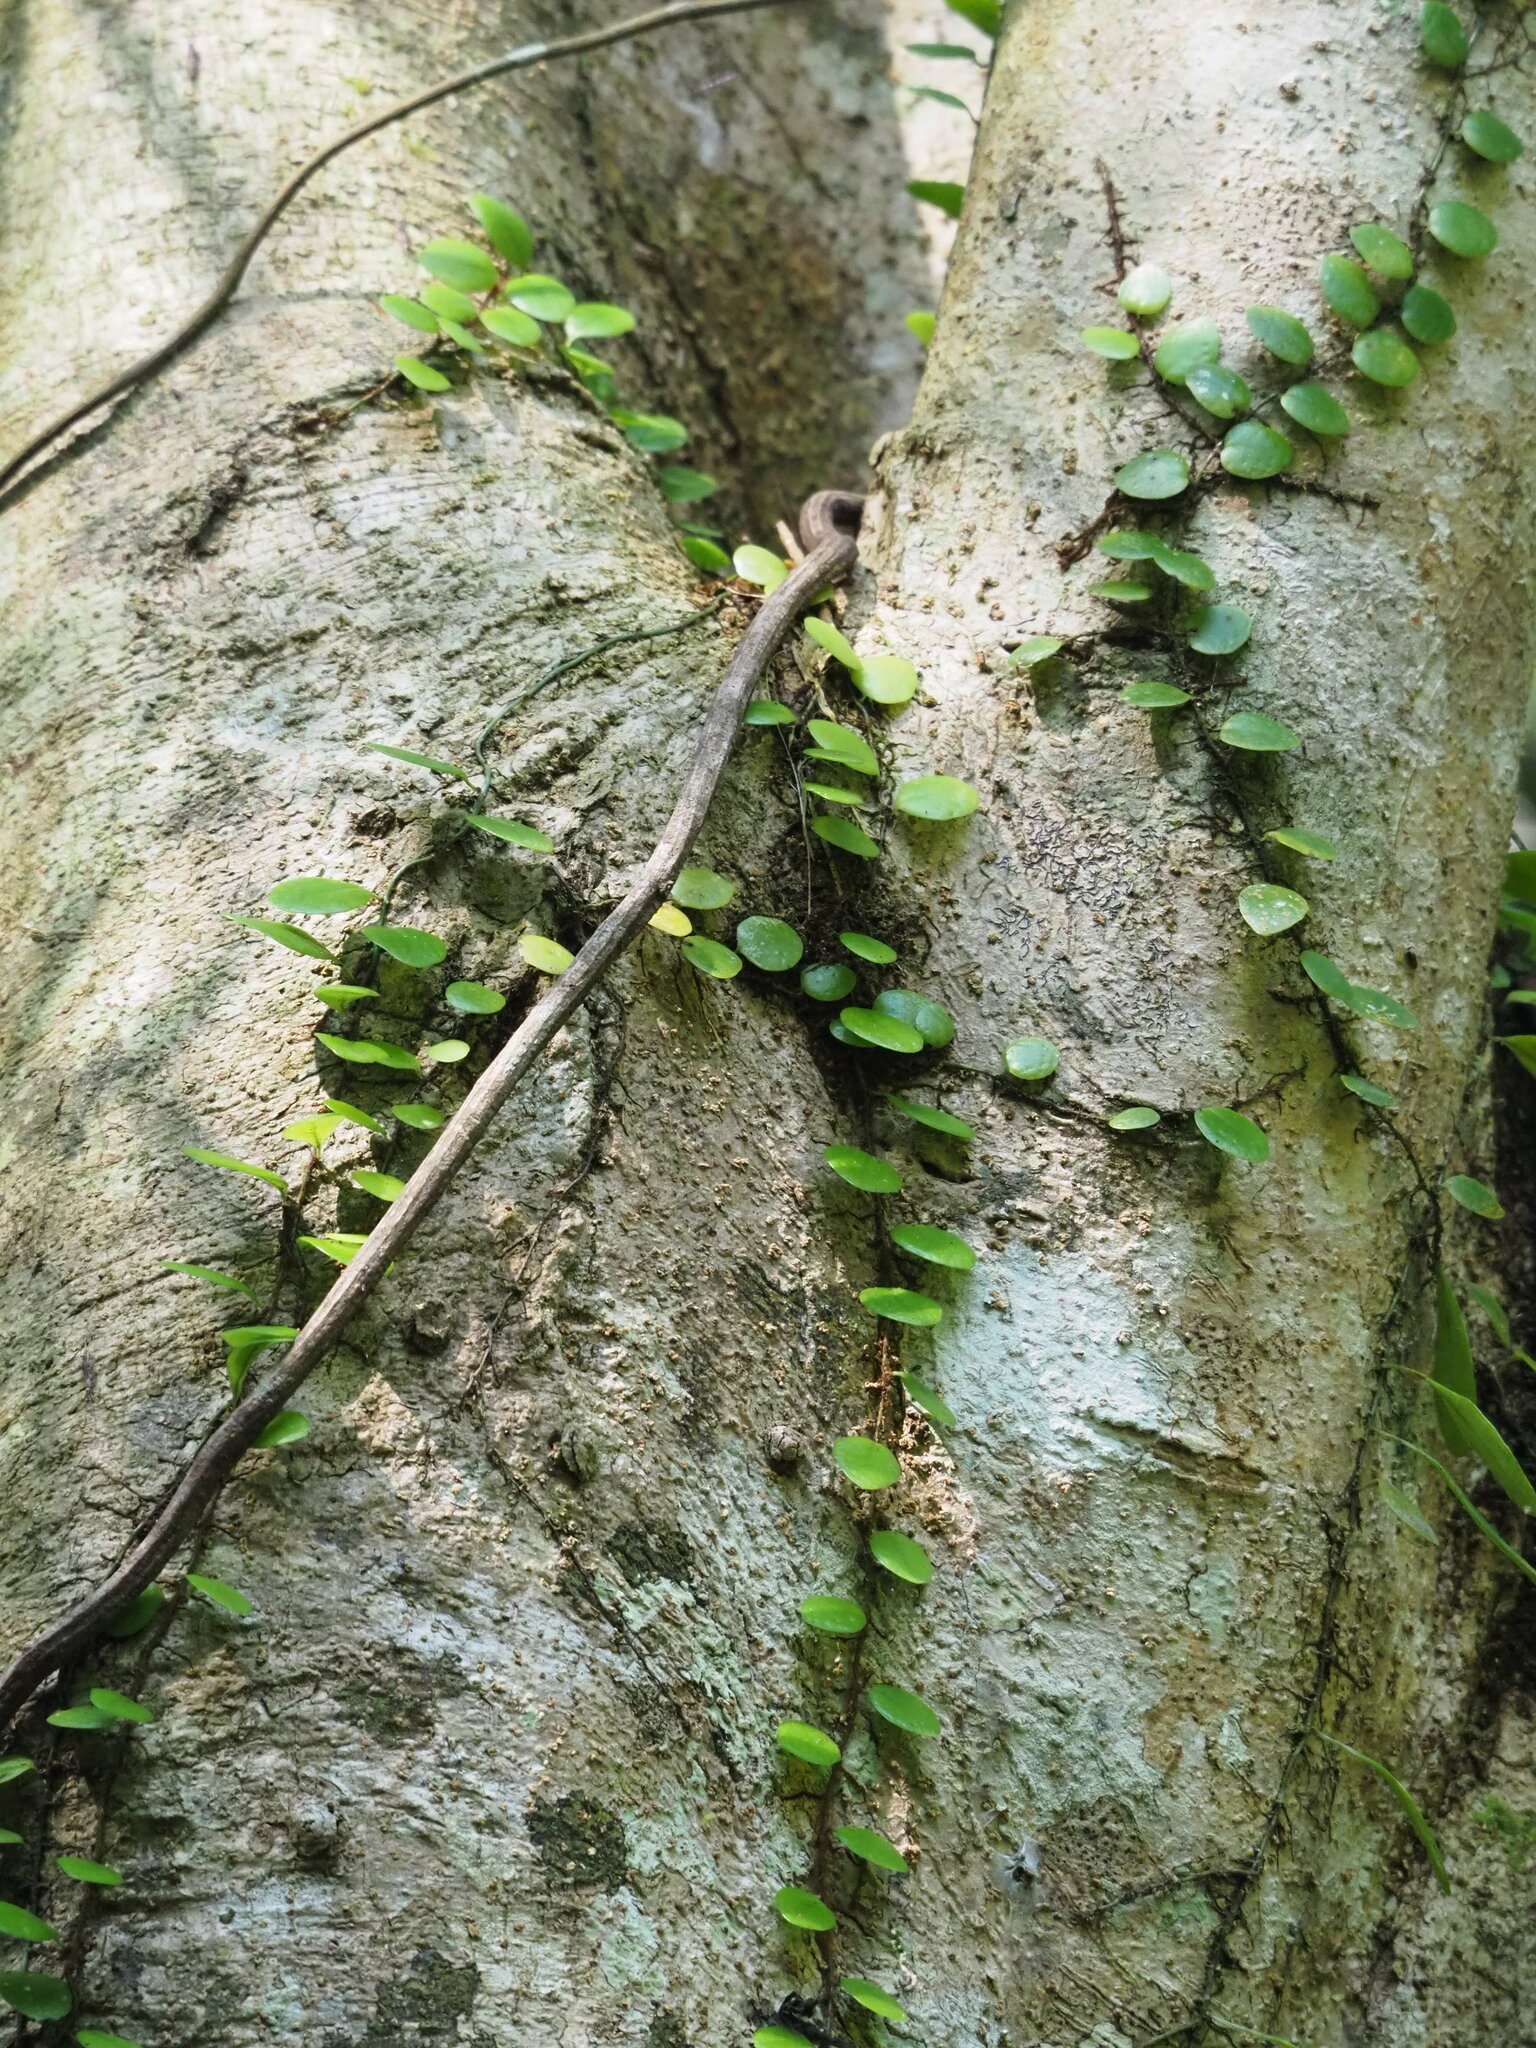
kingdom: Plantae
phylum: Tracheophyta
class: Polypodiopsida
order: Polypodiales
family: Polypodiaceae
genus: Lepisorus
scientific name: Lepisorus microphyllus
